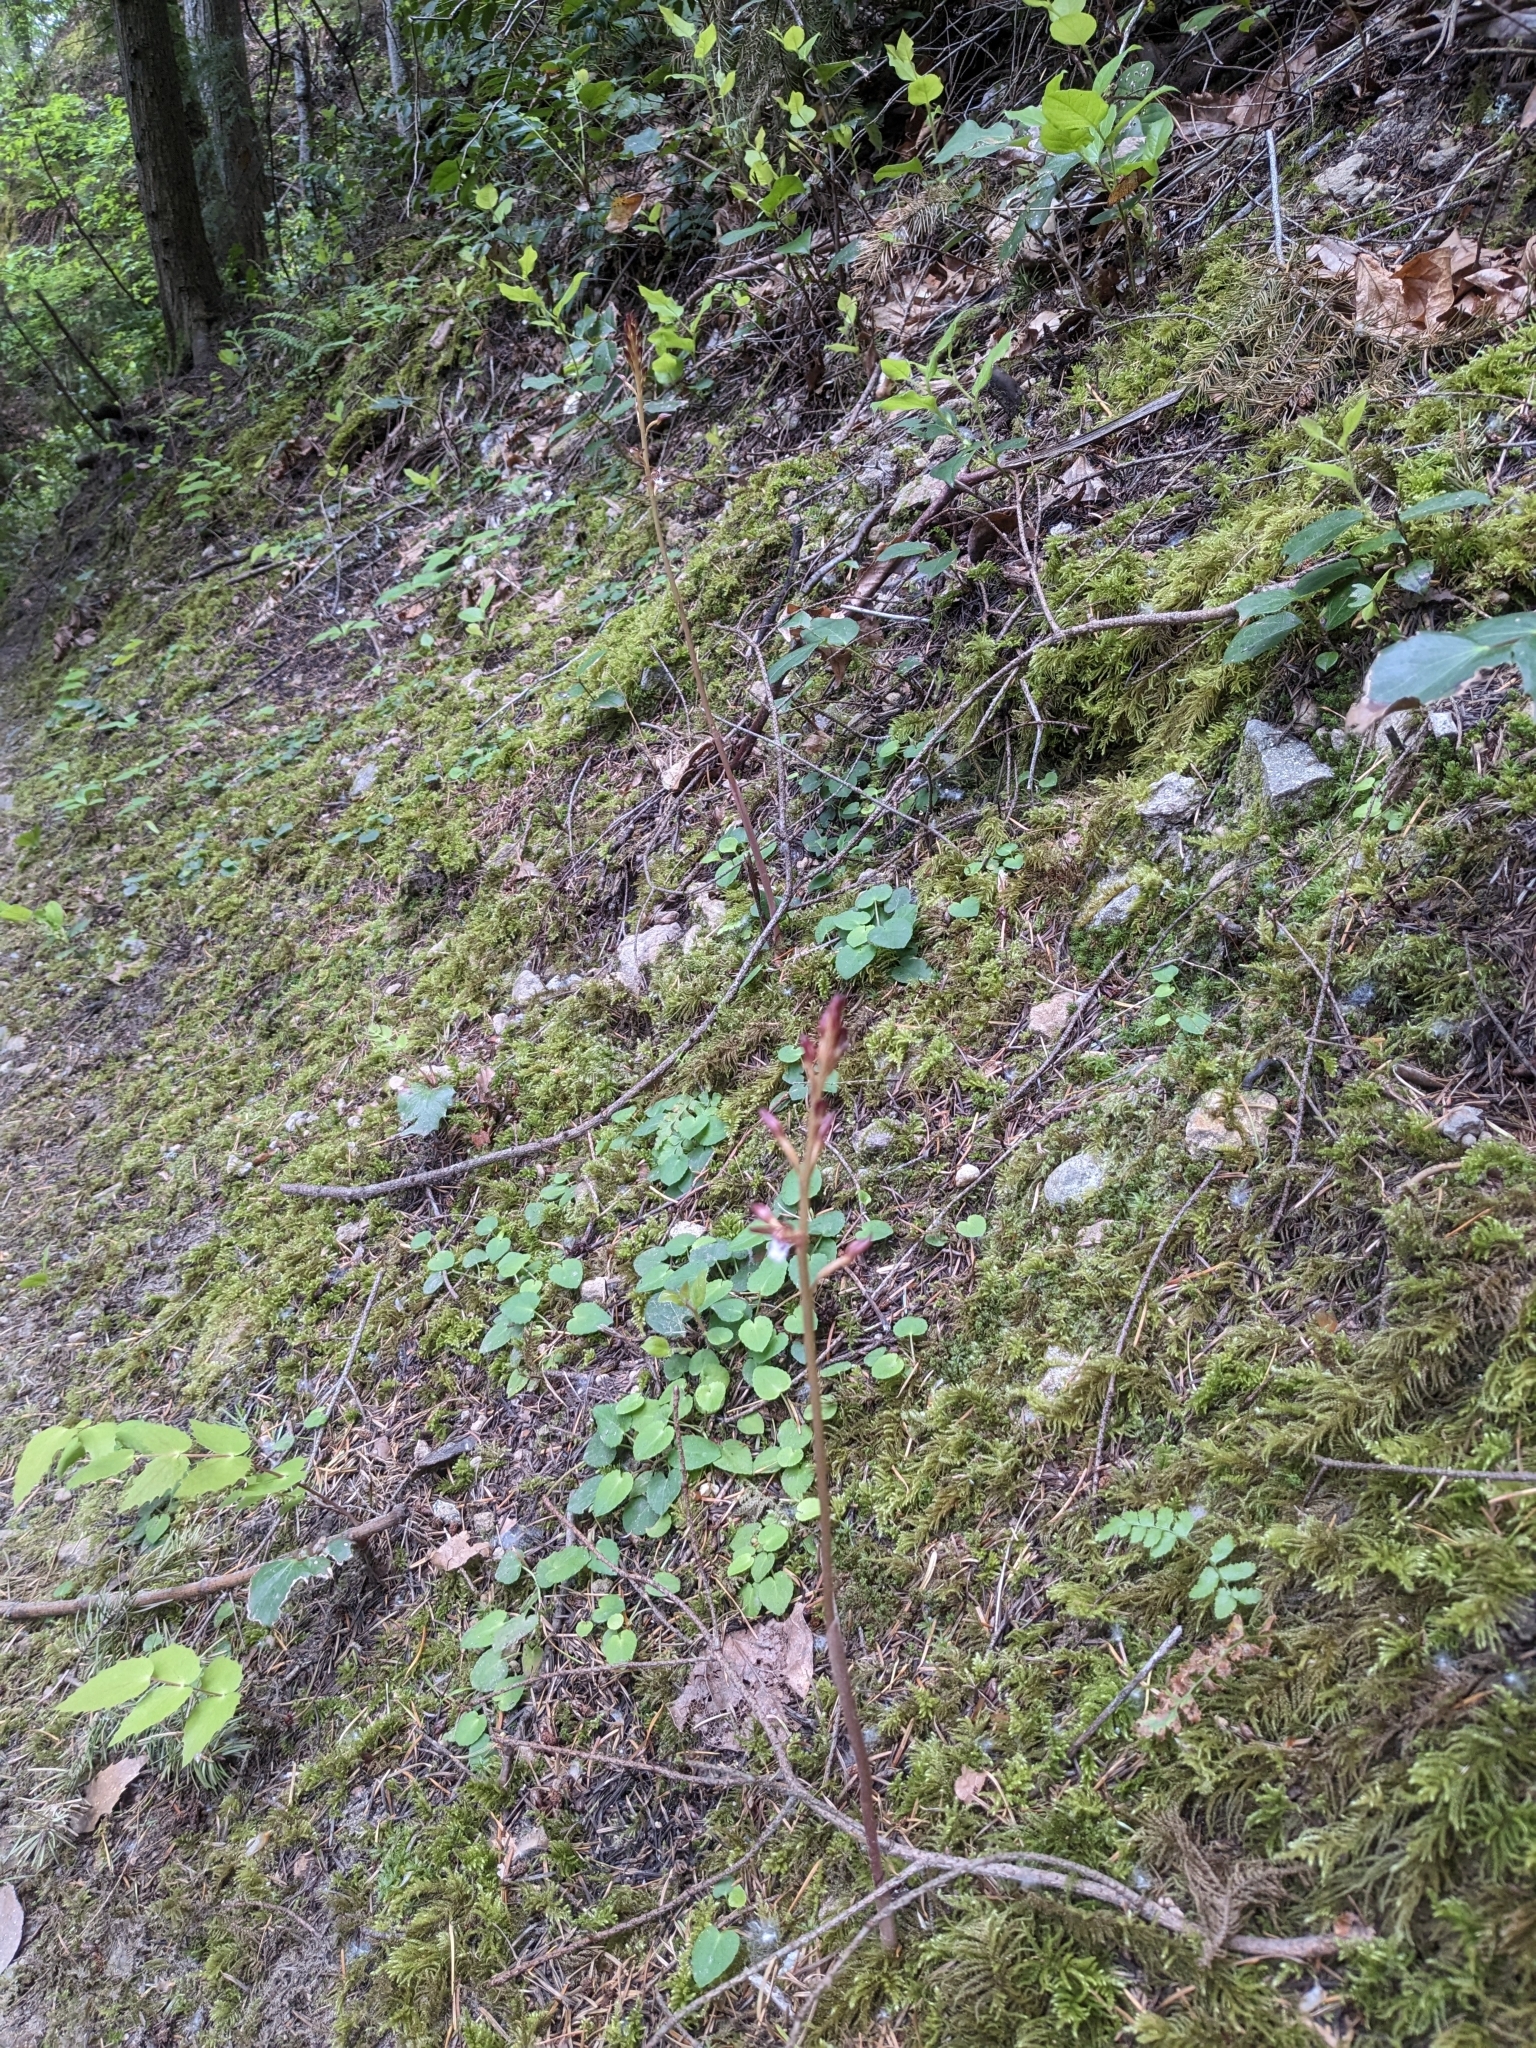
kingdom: Plantae
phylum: Tracheophyta
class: Liliopsida
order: Asparagales
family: Orchidaceae
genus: Corallorhiza
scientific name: Corallorhiza maculata
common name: Spotted coralroot
